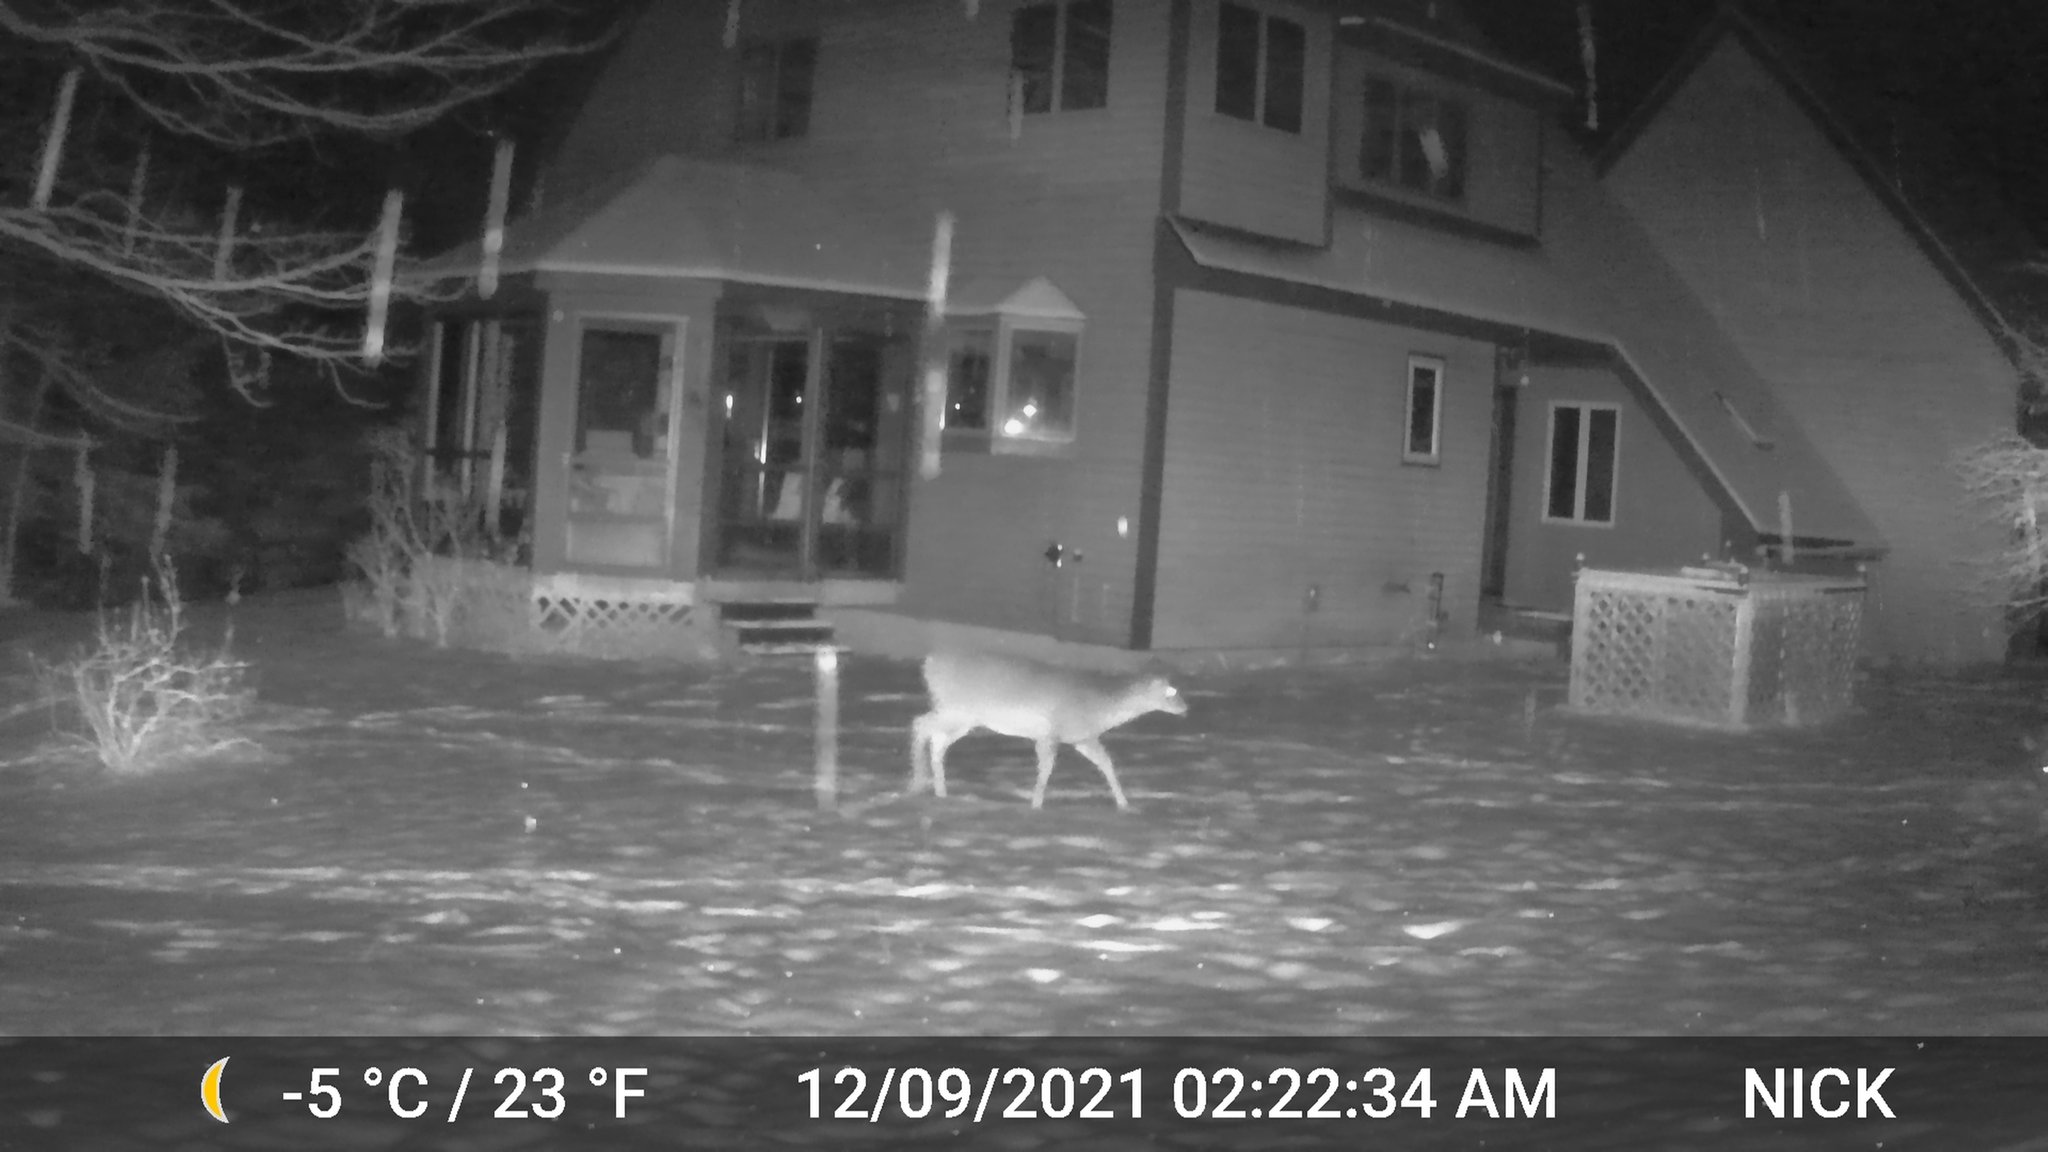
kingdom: Animalia
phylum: Chordata
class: Mammalia
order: Artiodactyla
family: Cervidae
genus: Odocoileus
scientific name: Odocoileus virginianus
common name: White-tailed deer
